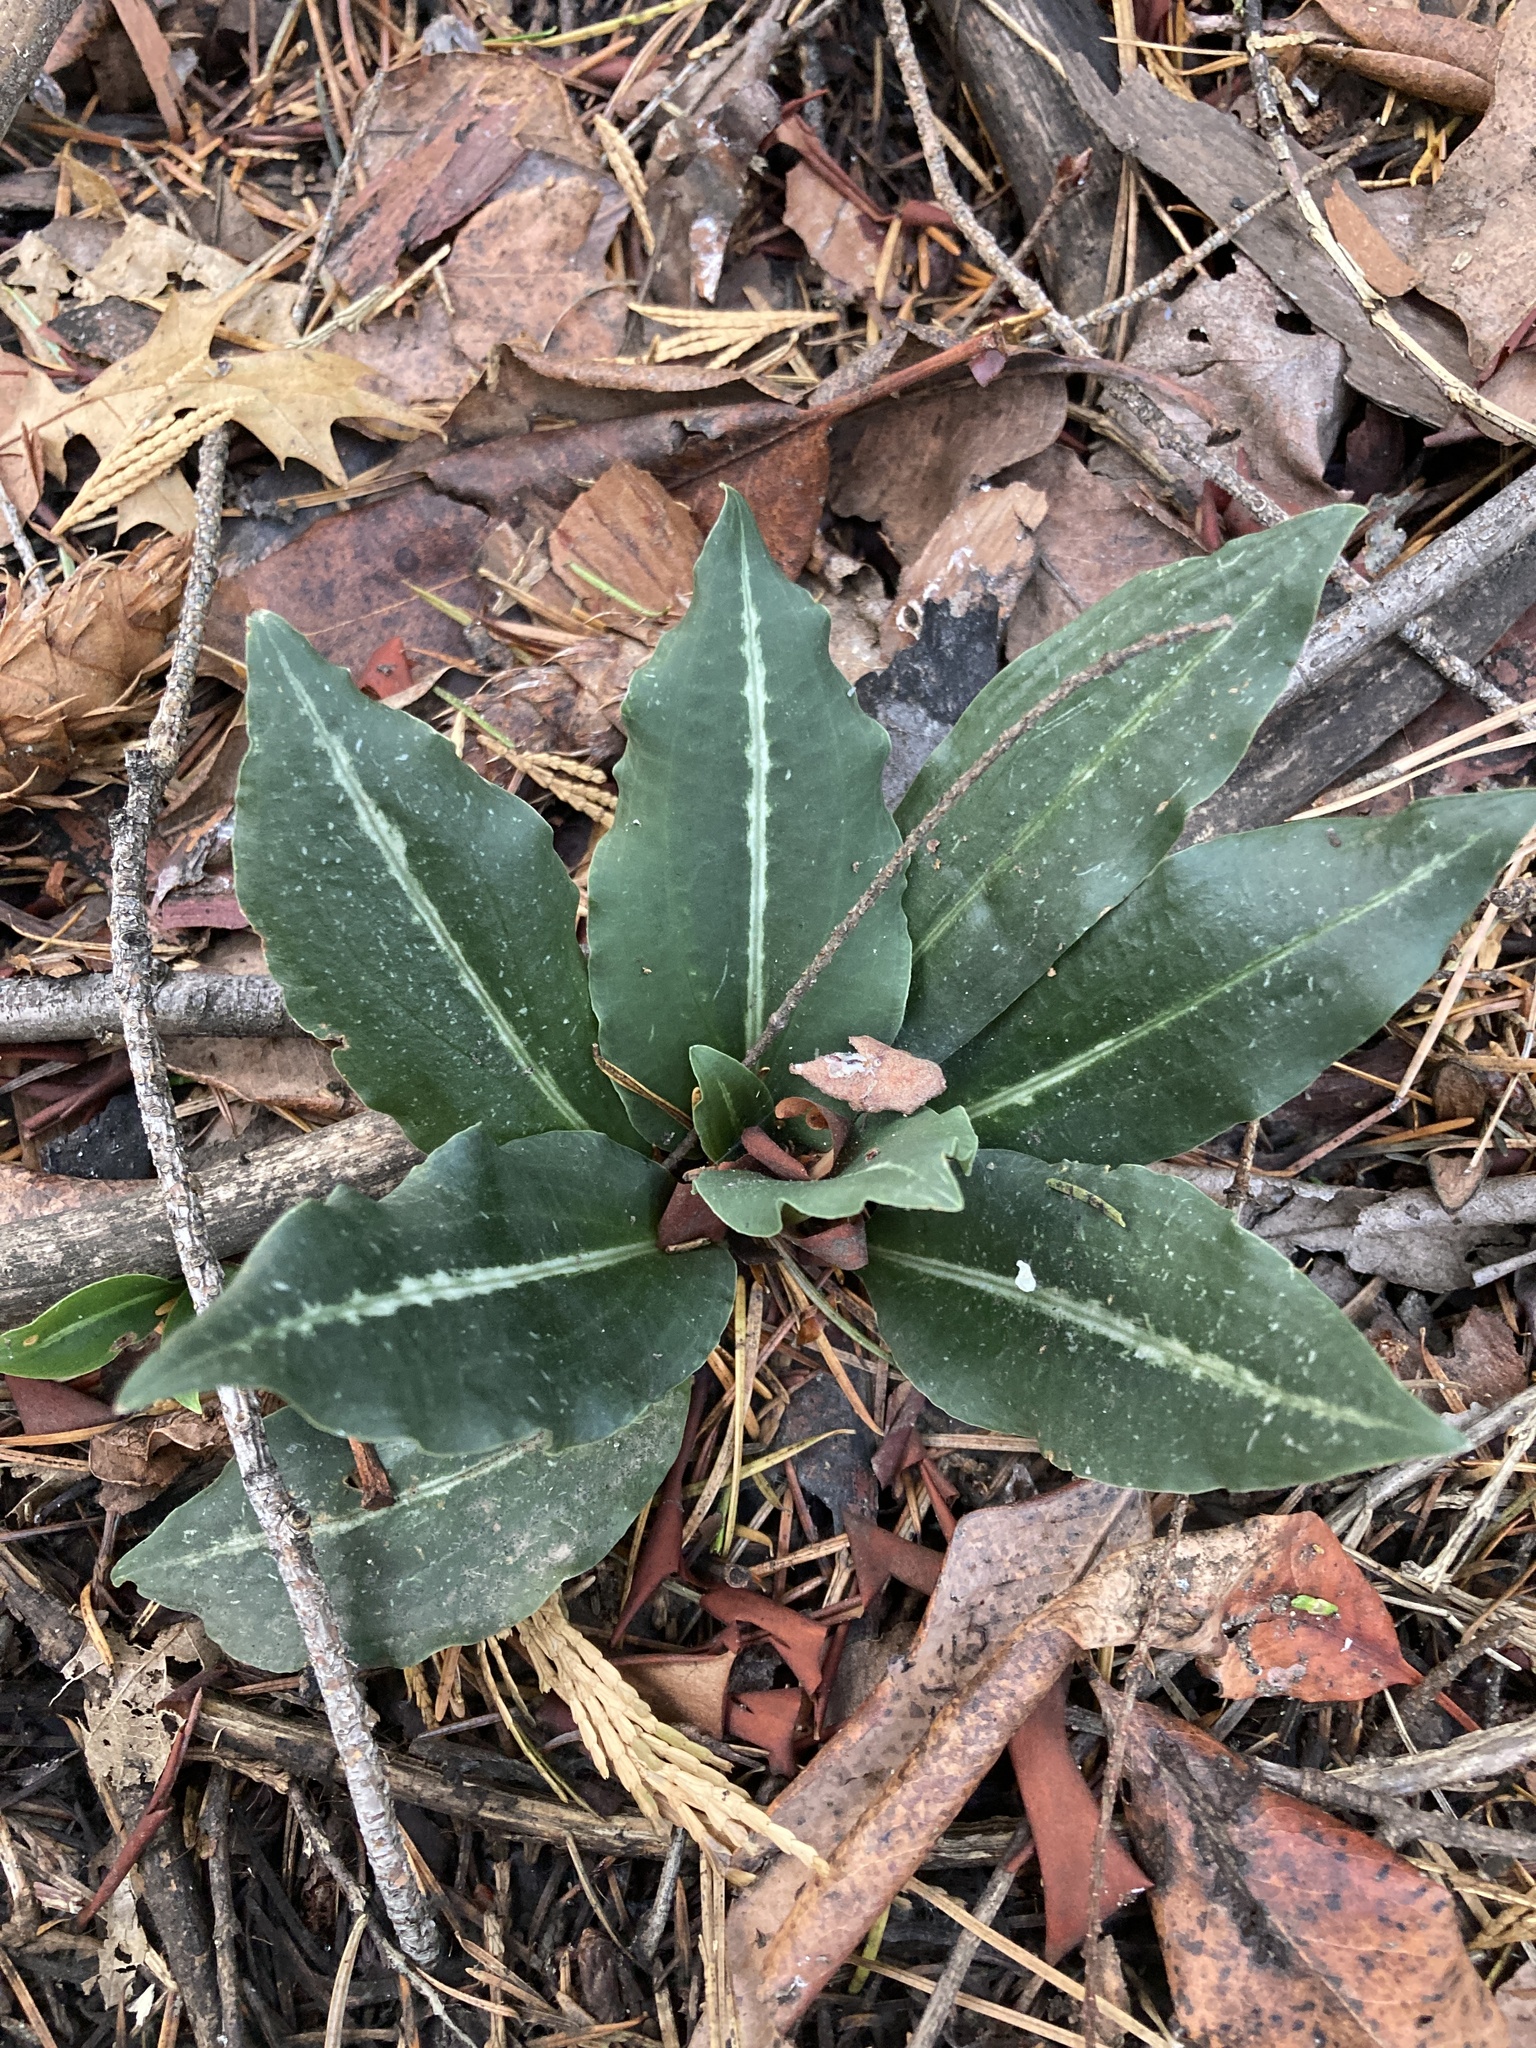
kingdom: Plantae
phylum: Tracheophyta
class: Liliopsida
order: Asparagales
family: Orchidaceae
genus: Goodyera
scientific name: Goodyera oblongifolia
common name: Giant rattlesnake-plantain
